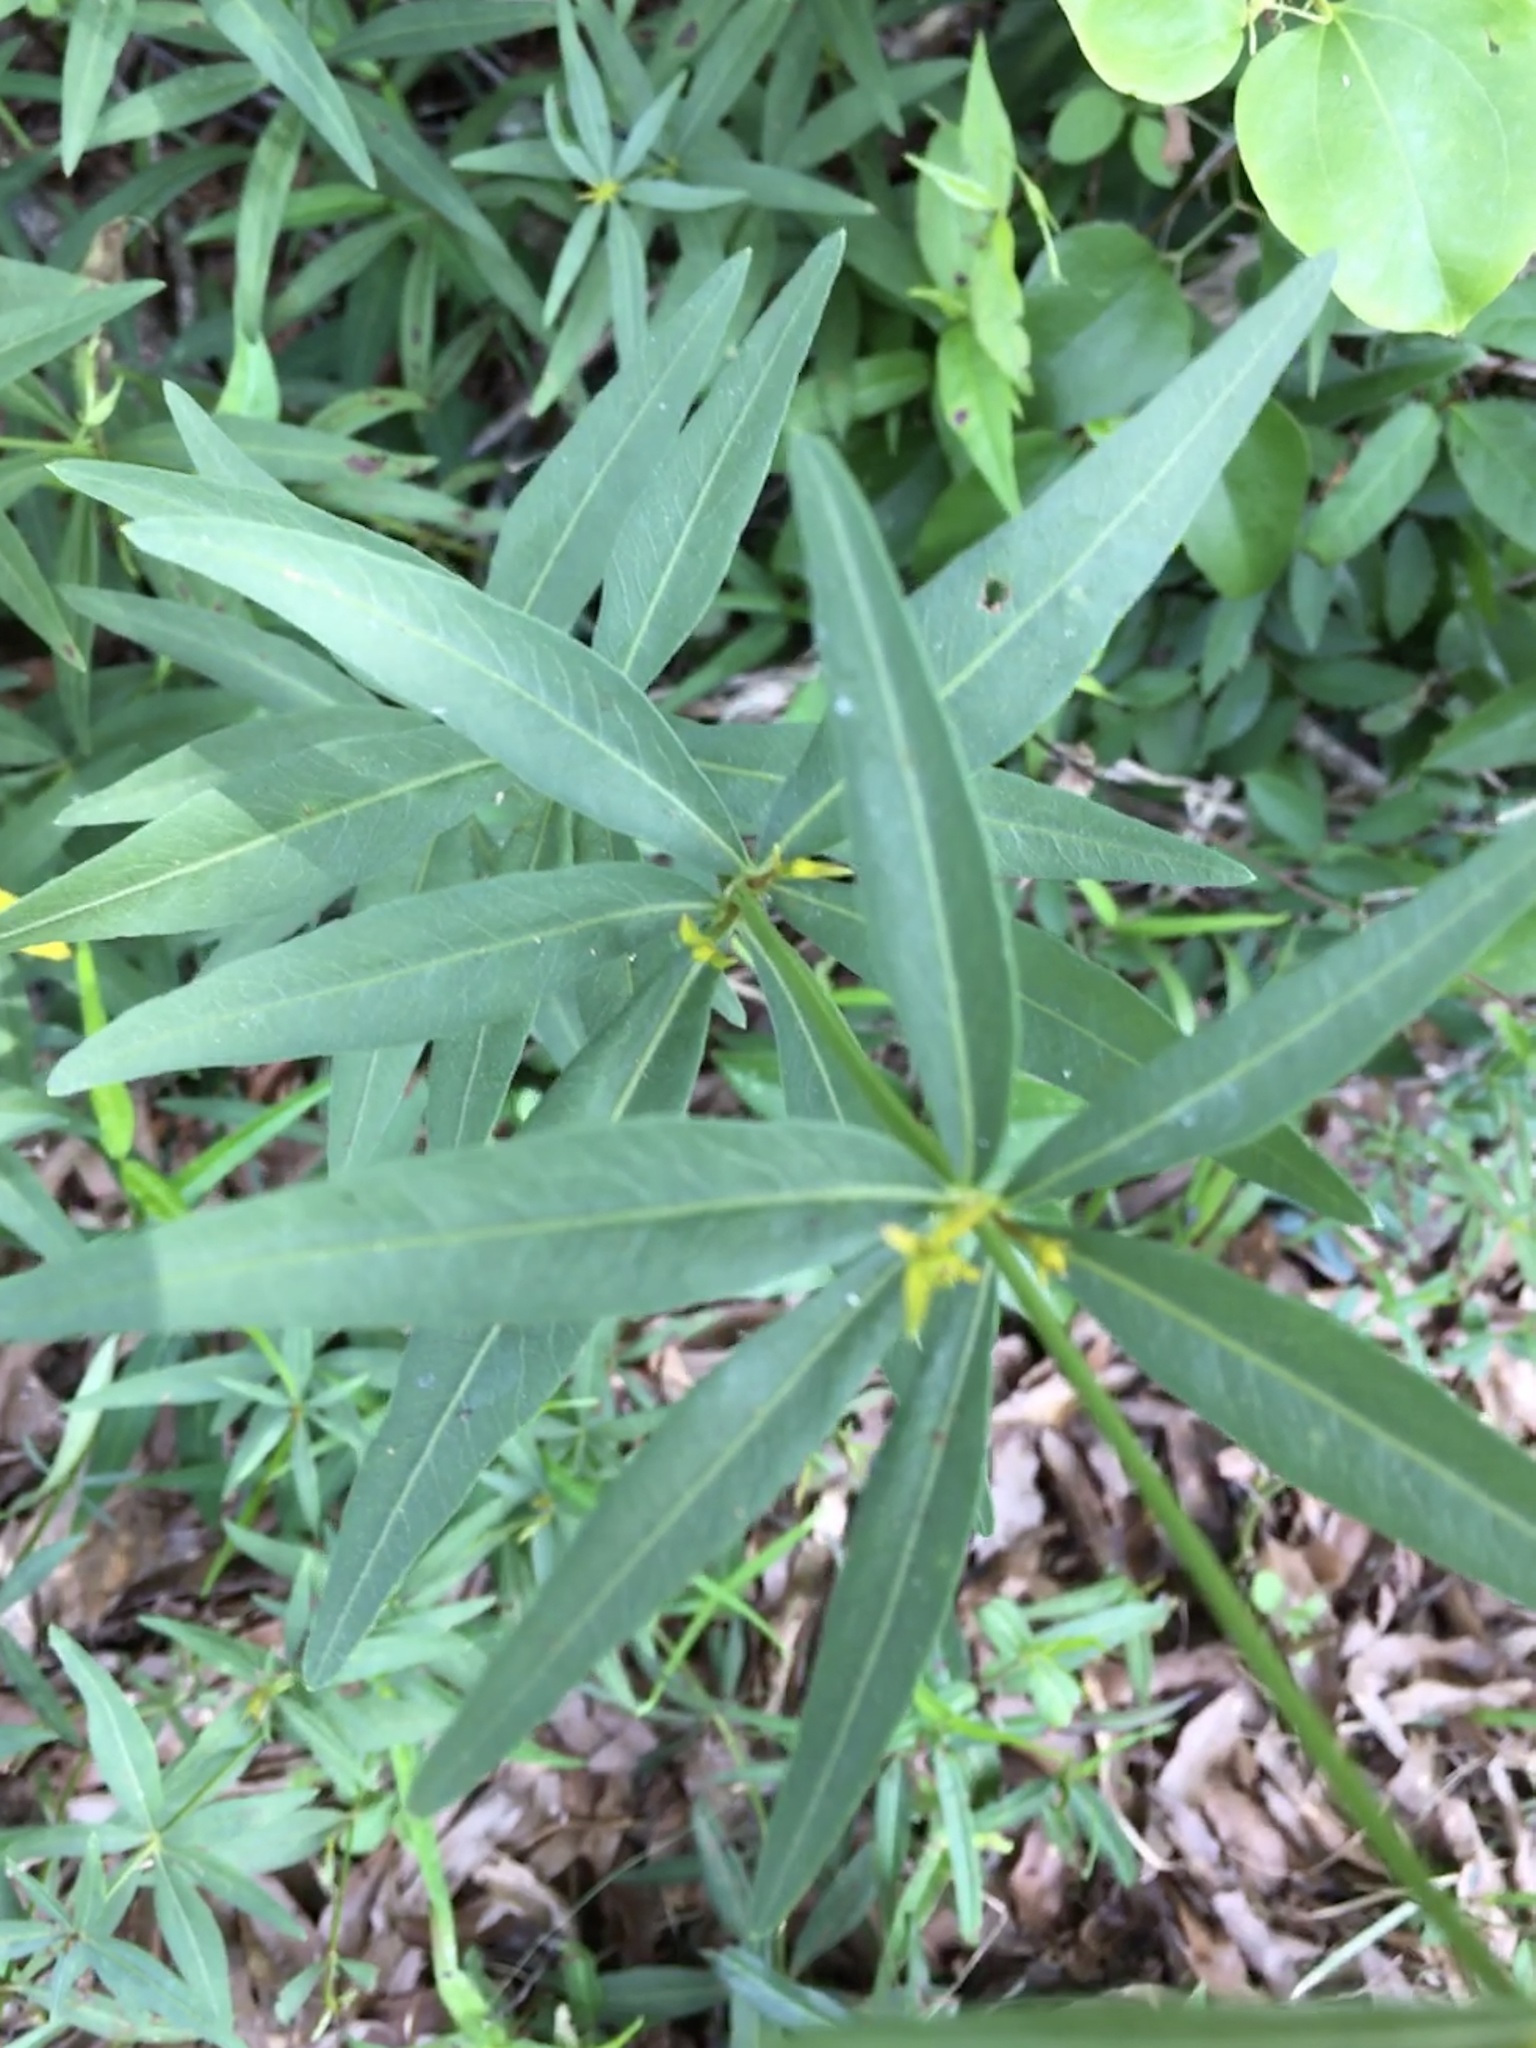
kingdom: Plantae
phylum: Tracheophyta
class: Magnoliopsida
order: Asterales
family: Asteraceae
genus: Coreopsis
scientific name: Coreopsis major
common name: Forest tickseed
